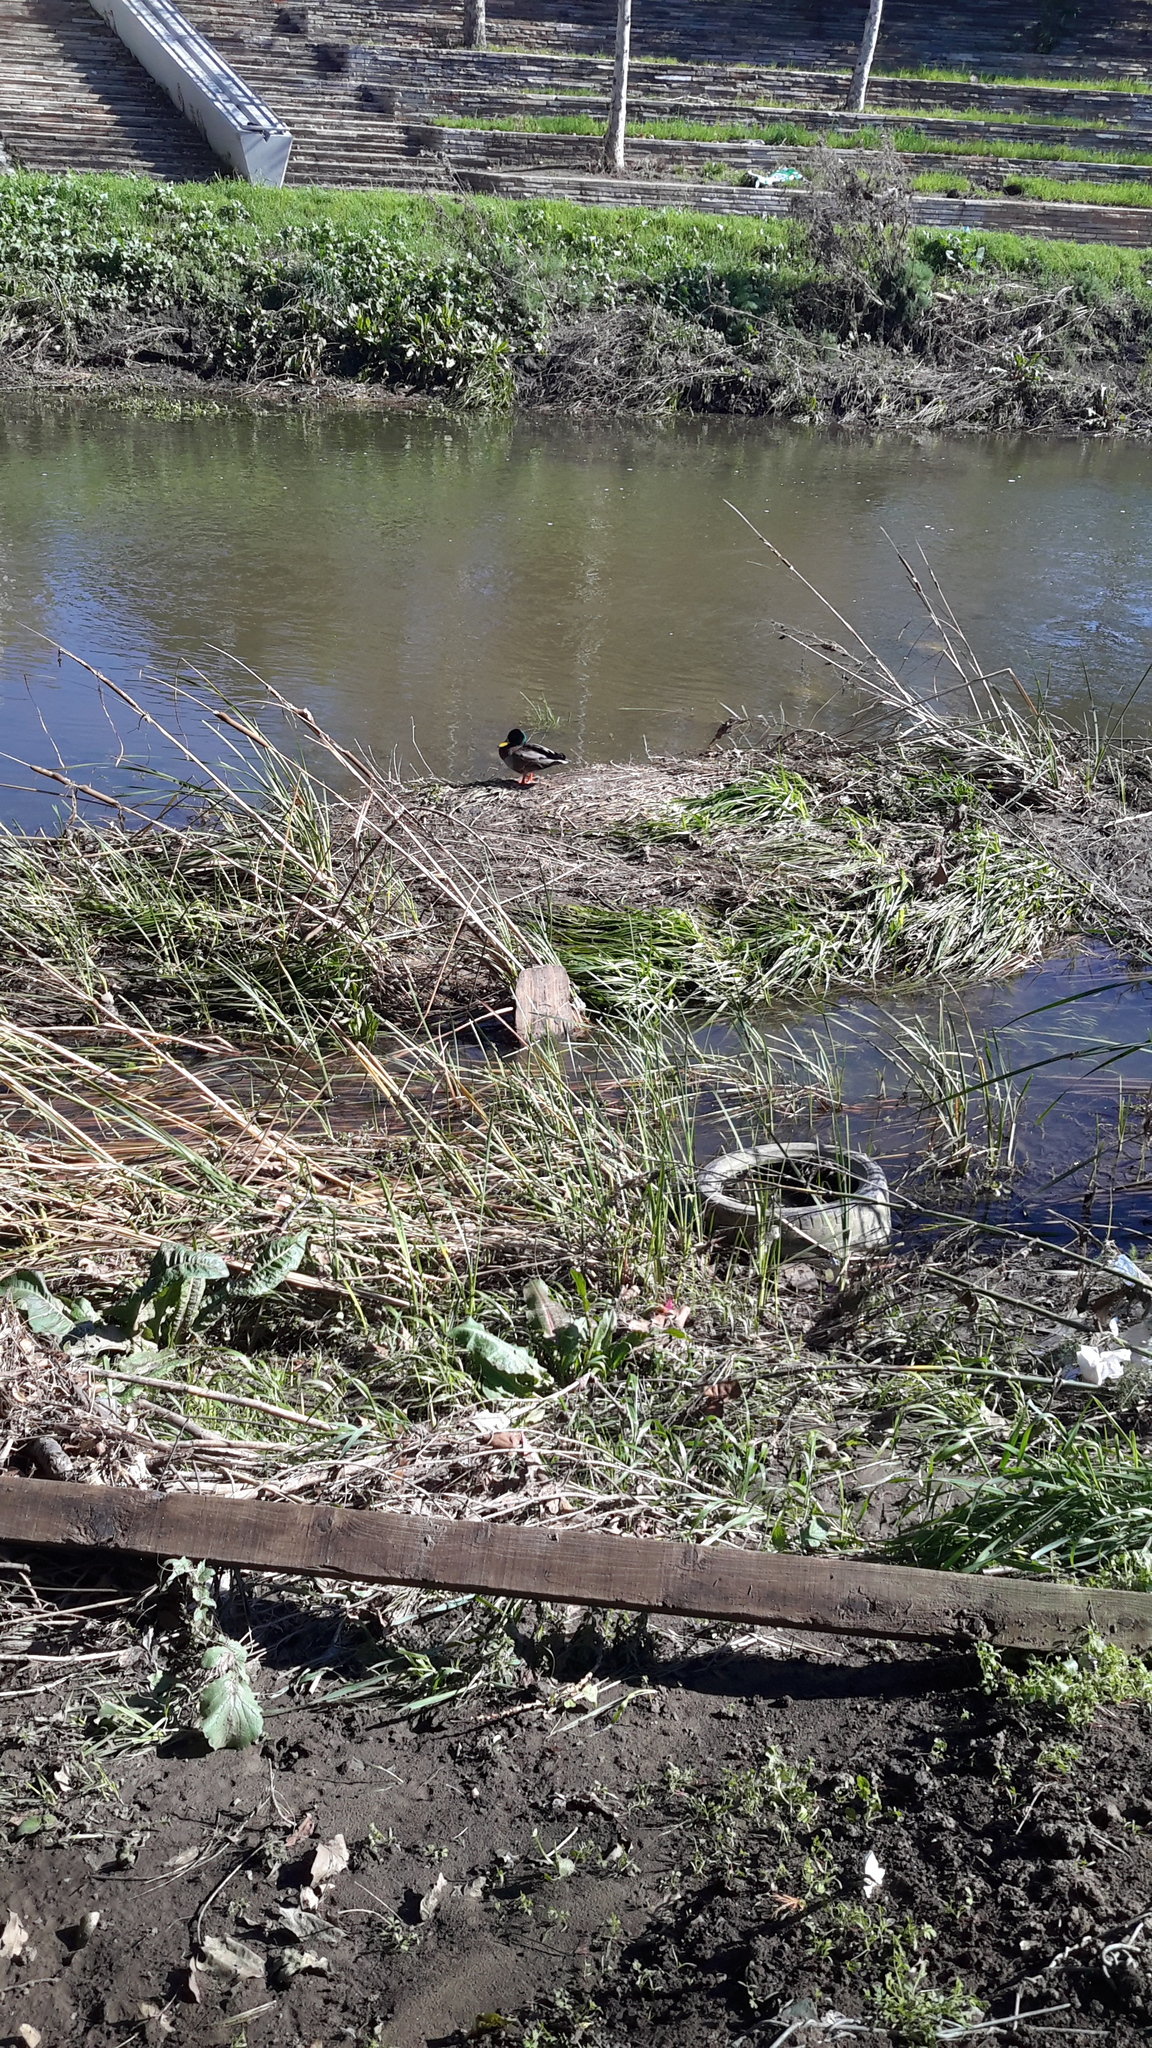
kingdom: Animalia
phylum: Chordata
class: Aves
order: Anseriformes
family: Anatidae
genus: Anas
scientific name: Anas platyrhynchos
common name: Mallard
